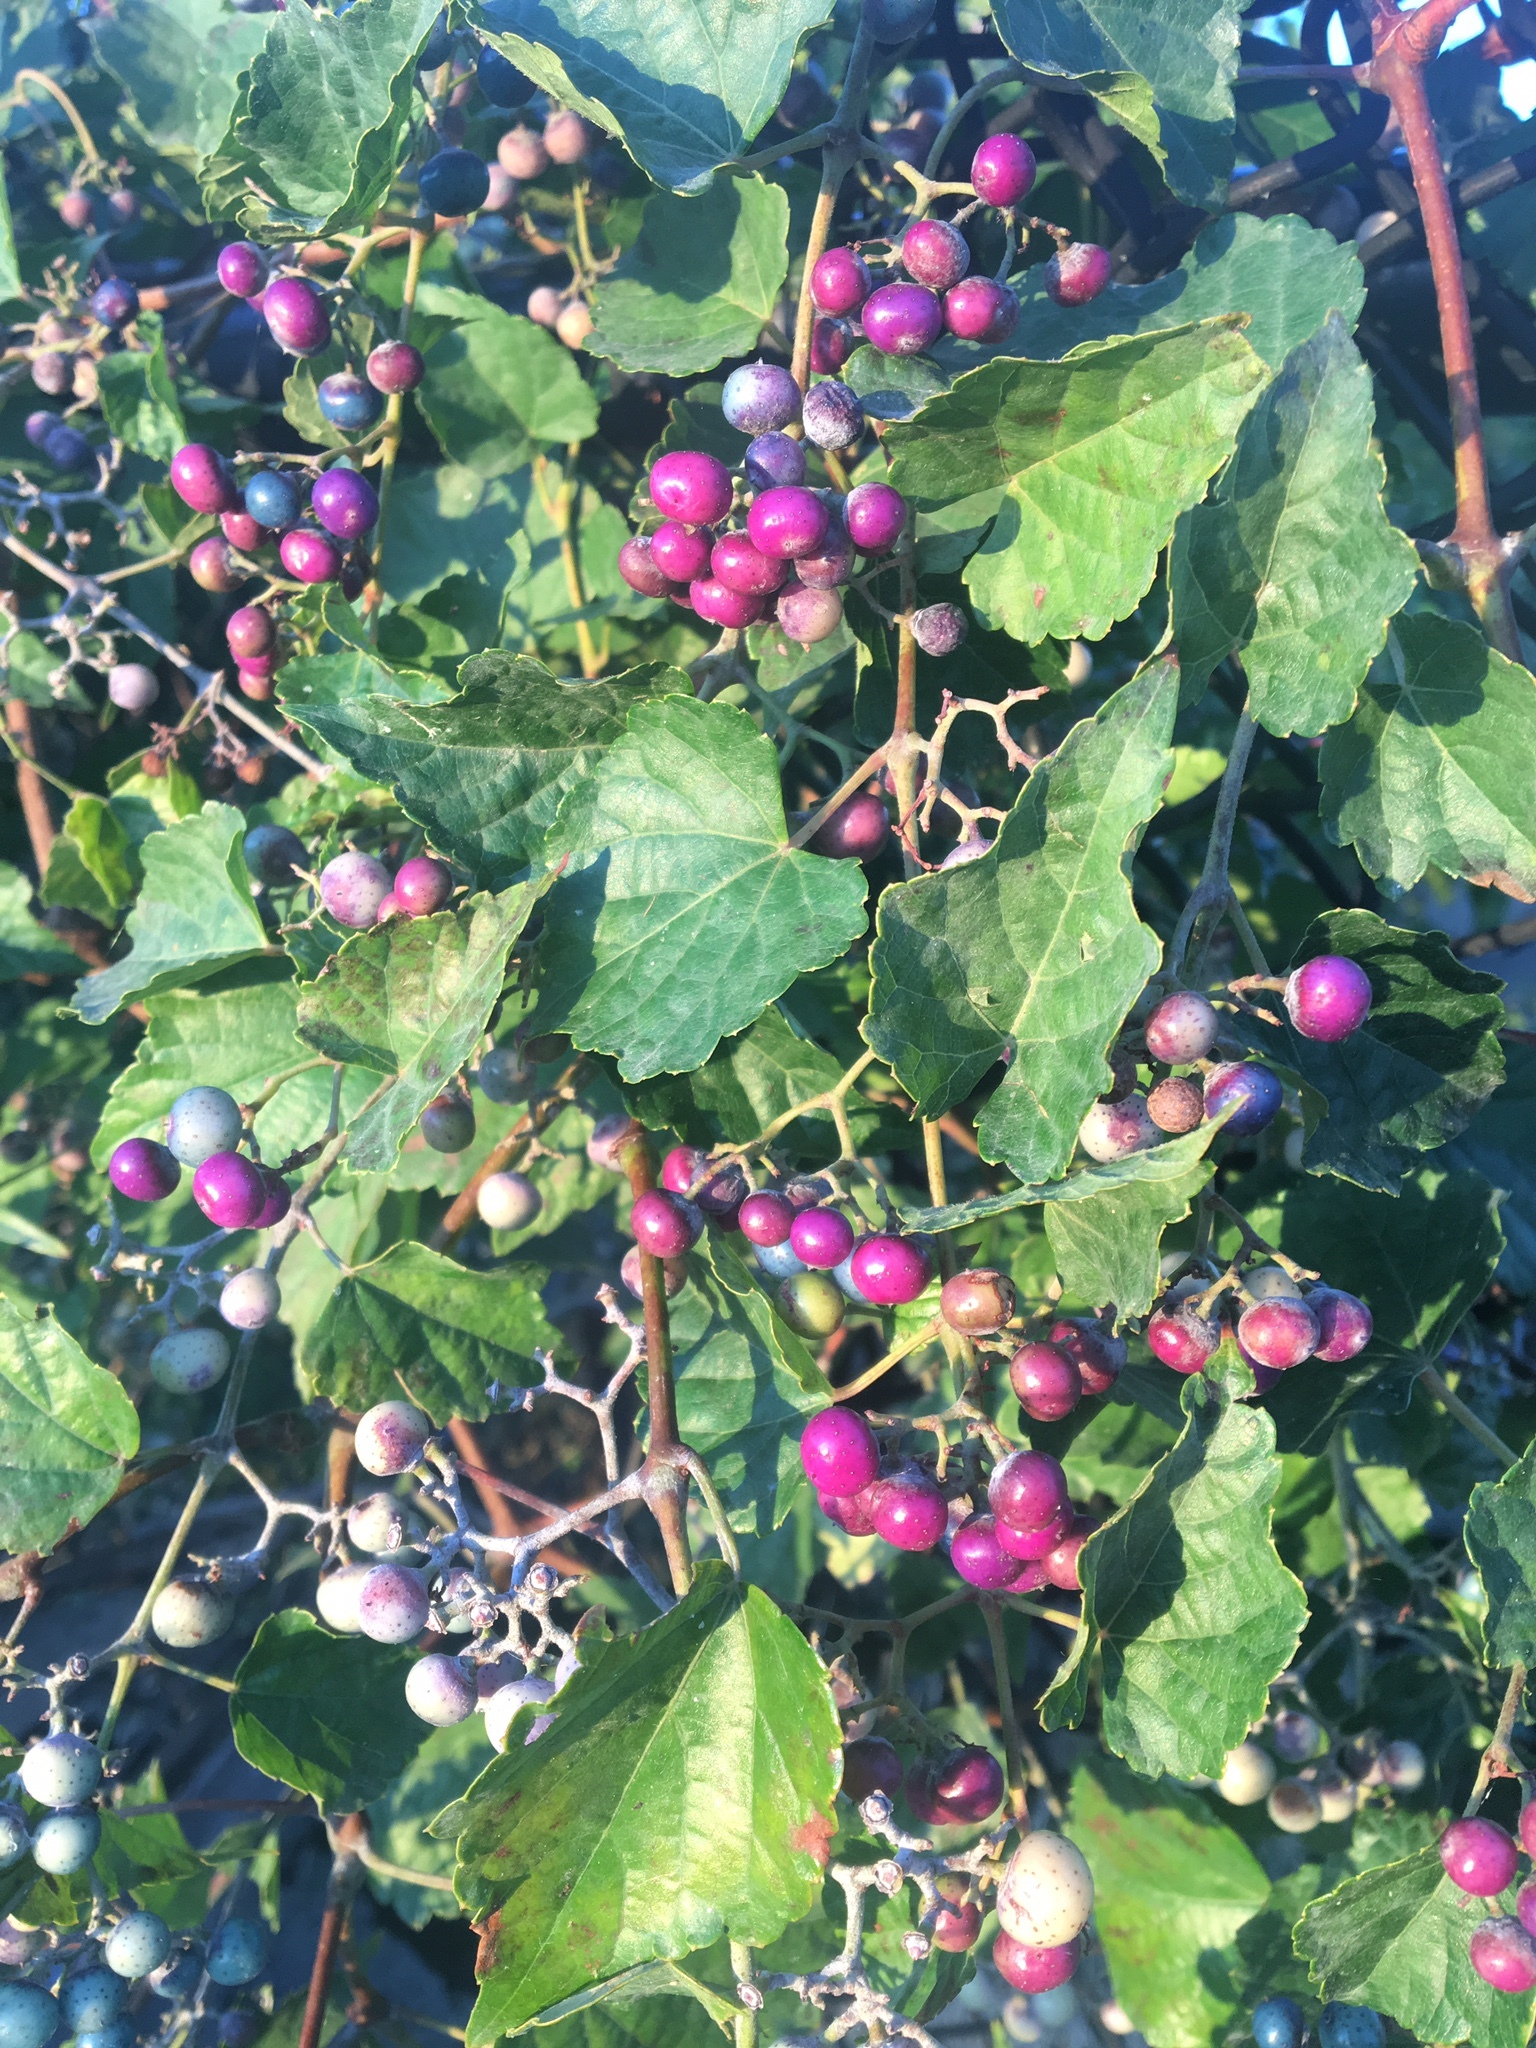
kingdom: Plantae
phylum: Tracheophyta
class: Magnoliopsida
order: Vitales
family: Vitaceae
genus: Ampelopsis
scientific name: Ampelopsis glandulosa
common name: Amur peppervine
